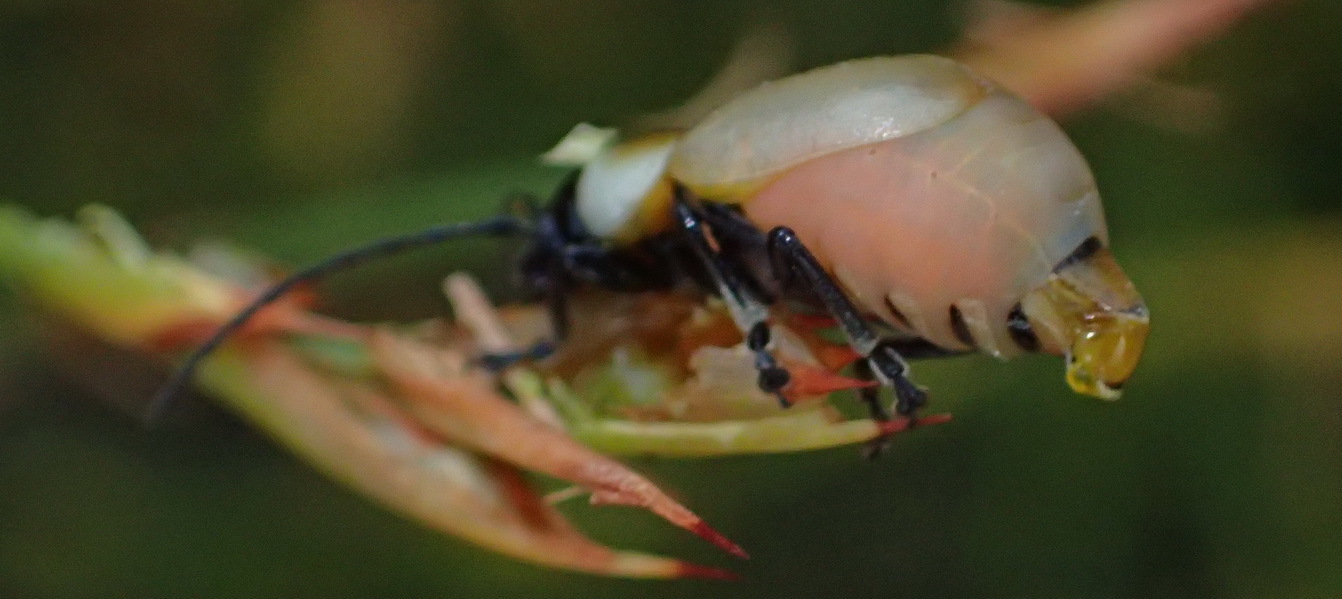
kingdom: Animalia
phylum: Arthropoda
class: Insecta
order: Coleoptera
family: Chrysomelidae
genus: Pseudorupilia
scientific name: Pseudorupilia
